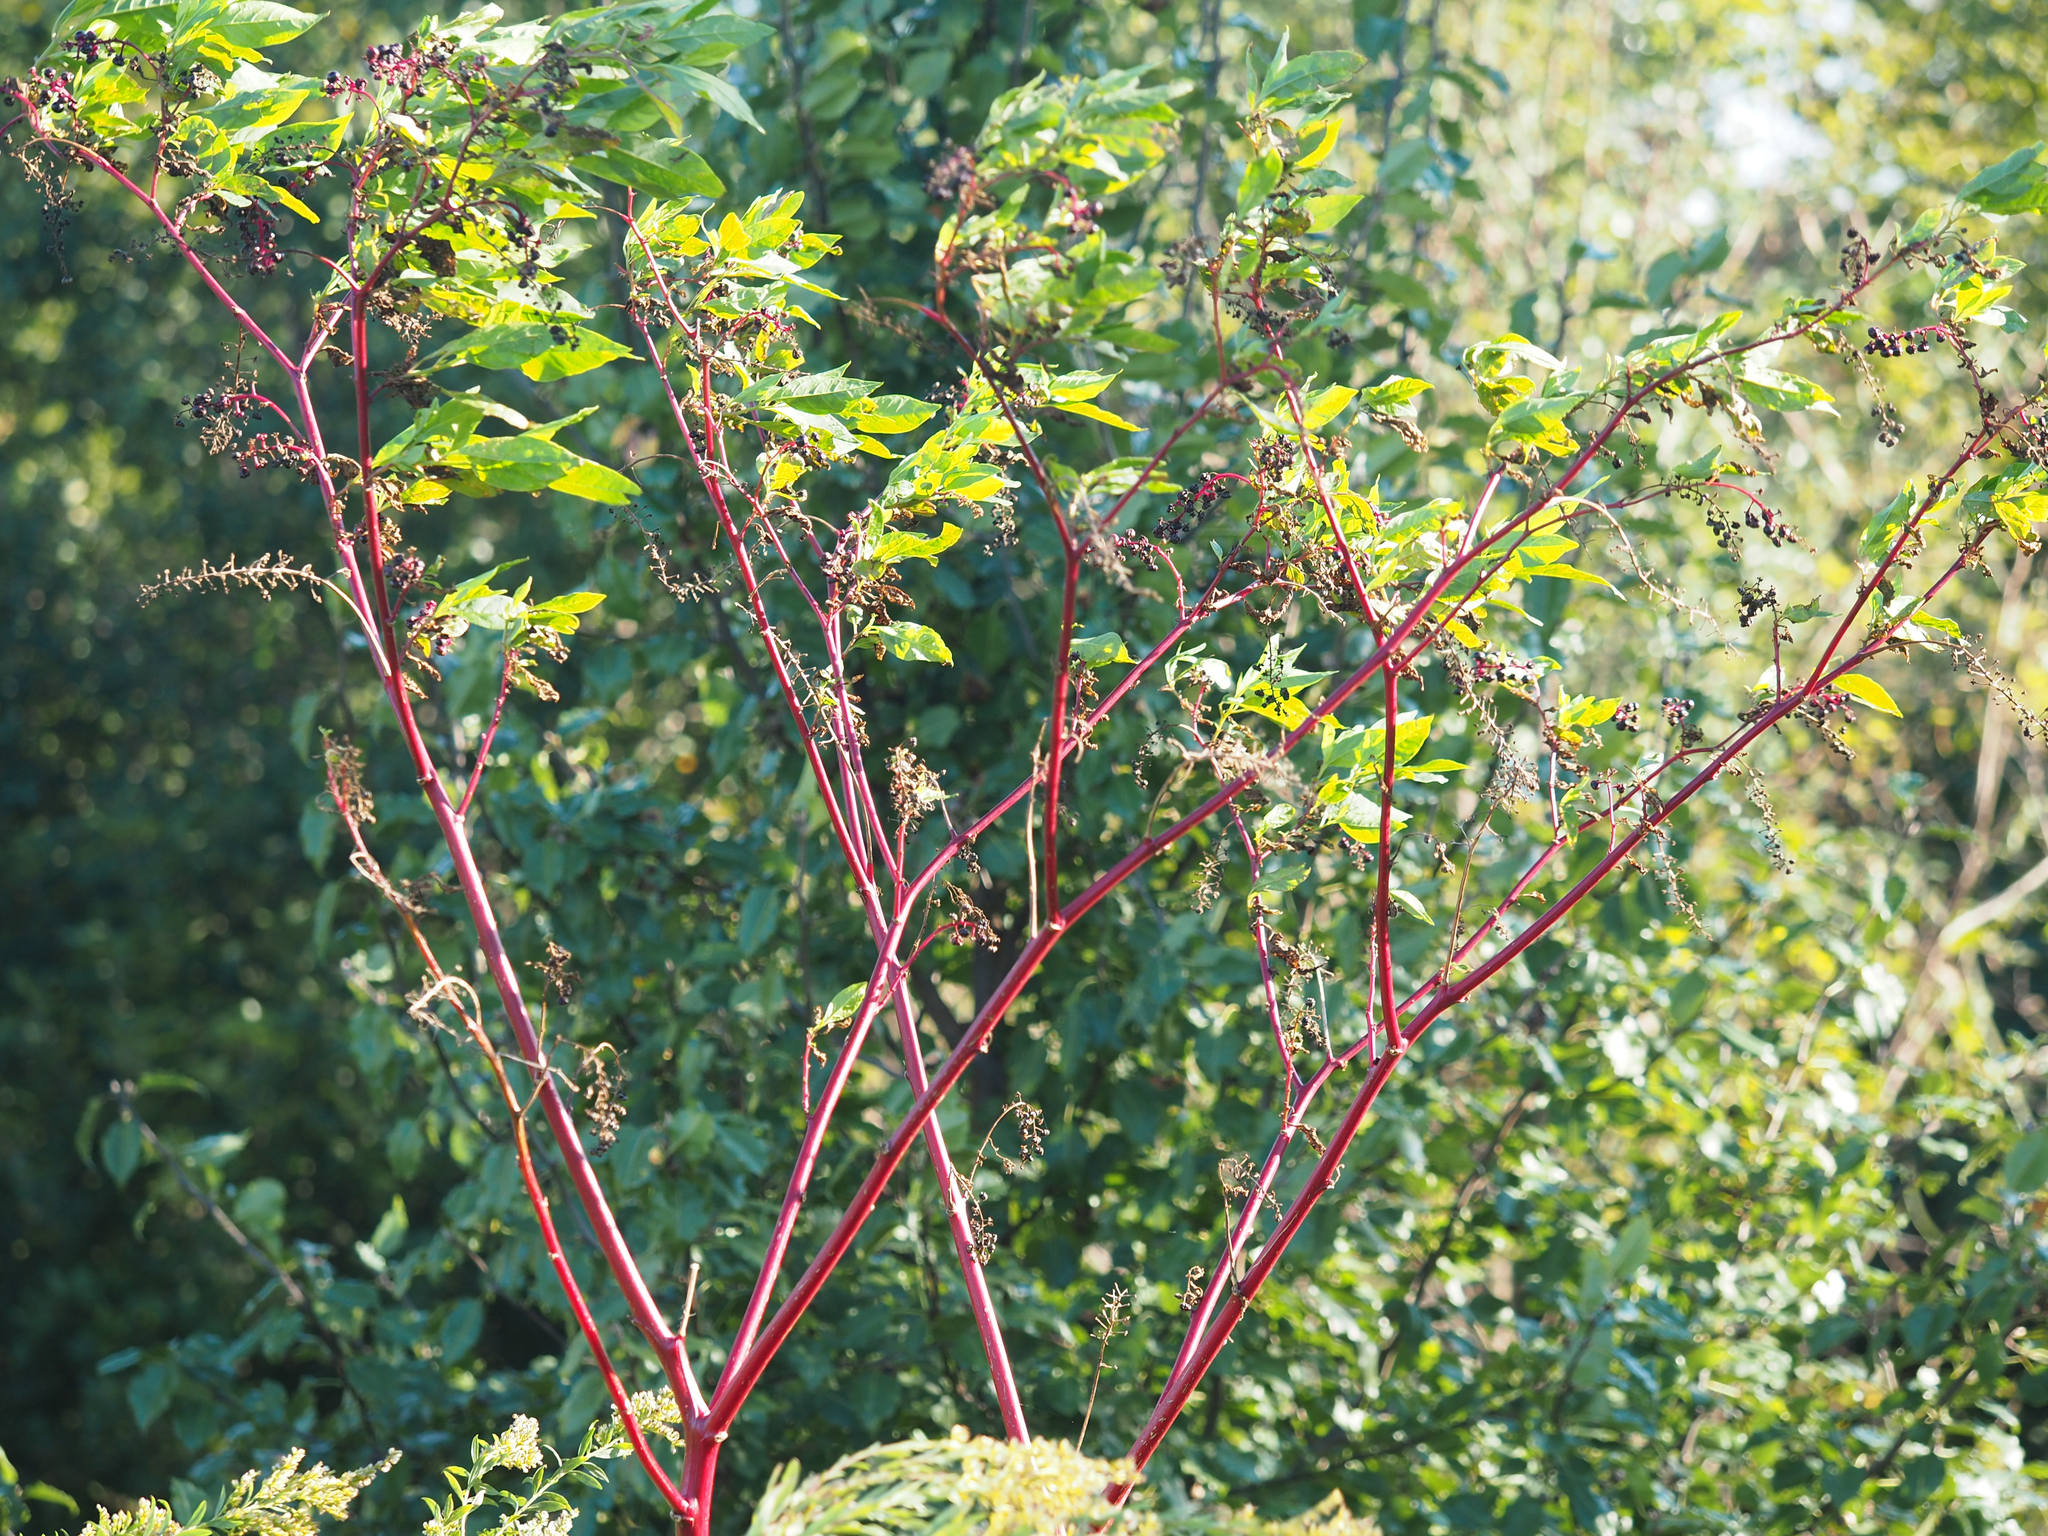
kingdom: Plantae
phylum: Tracheophyta
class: Magnoliopsida
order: Caryophyllales
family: Phytolaccaceae
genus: Phytolacca
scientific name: Phytolacca americana
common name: American pokeweed
